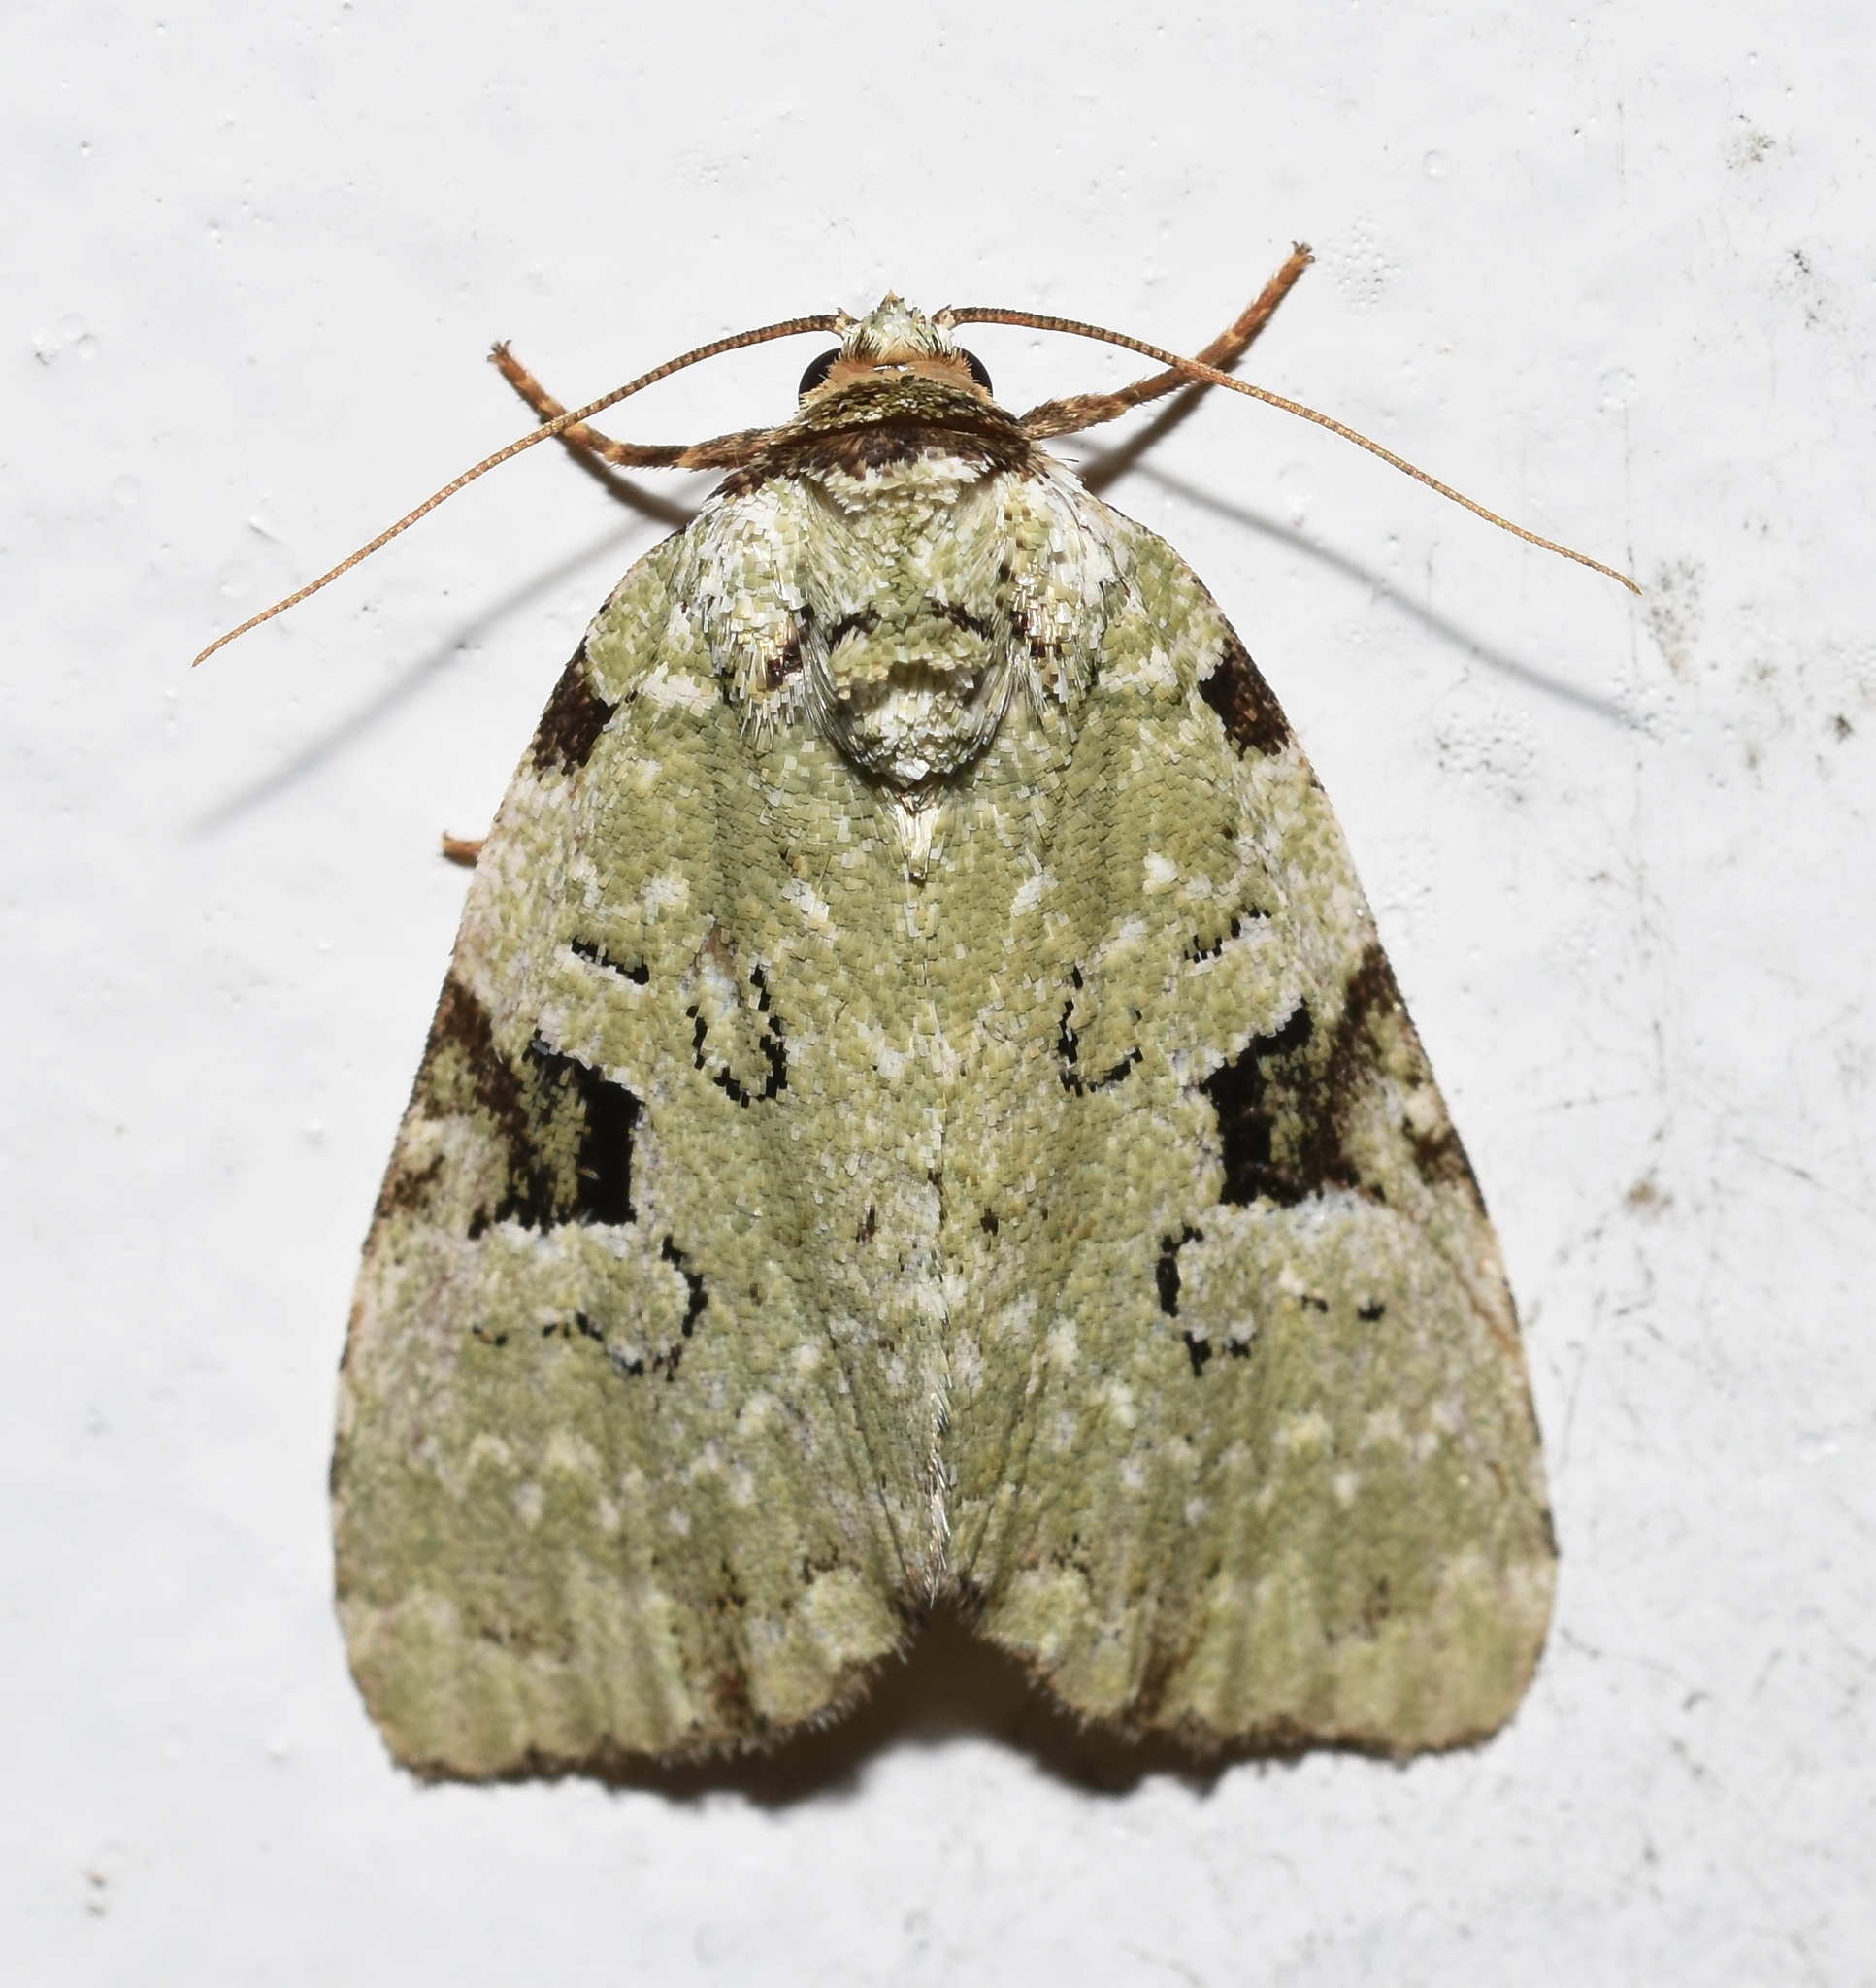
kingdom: Animalia
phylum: Arthropoda
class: Insecta
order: Lepidoptera
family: Noctuidae
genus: Leuconycta
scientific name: Leuconycta diphteroides
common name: Green leuconycta moth
